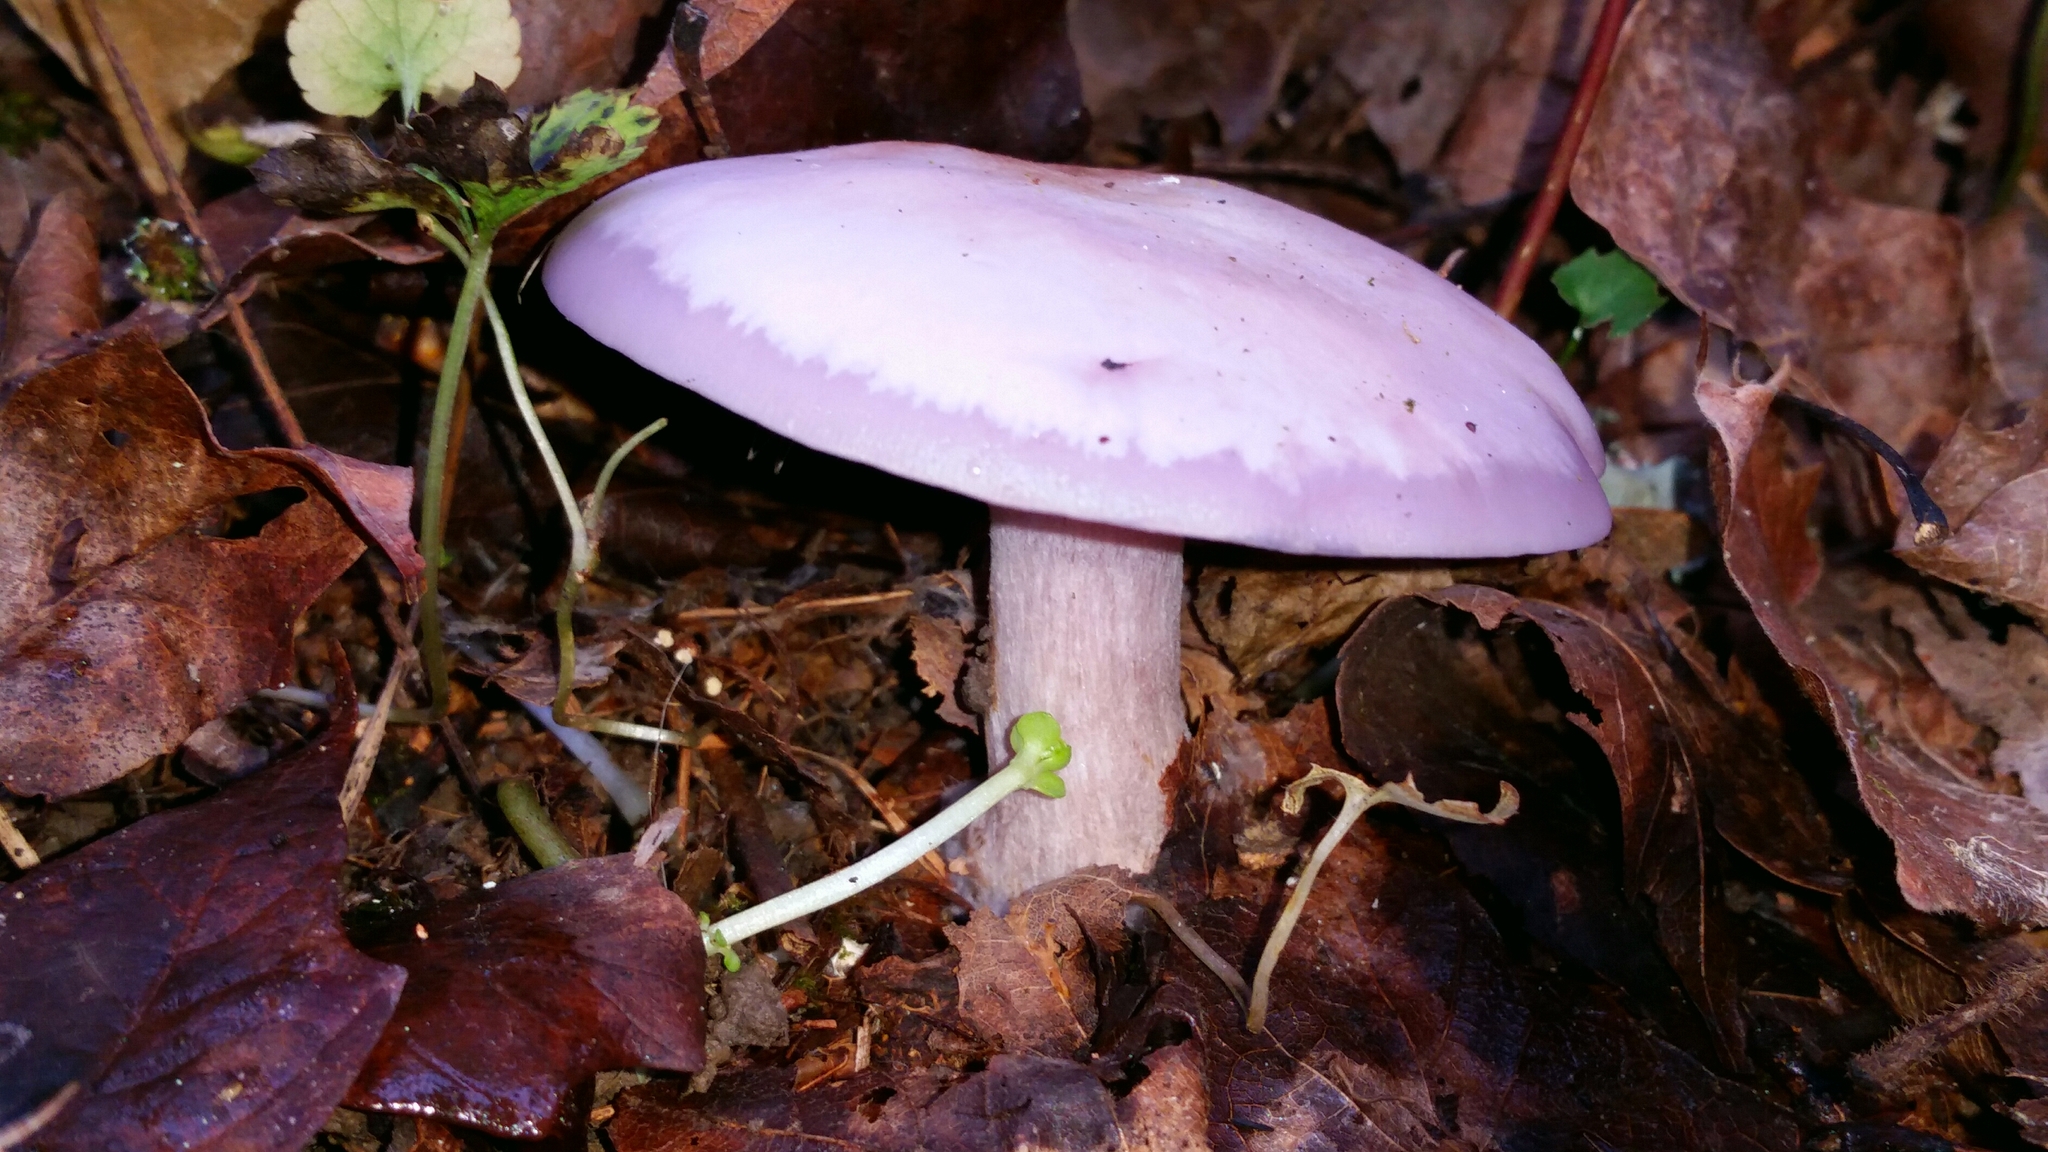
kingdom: Fungi
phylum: Basidiomycota
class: Agaricomycetes
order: Agaricales
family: Tricholomataceae
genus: Collybia
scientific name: Collybia
